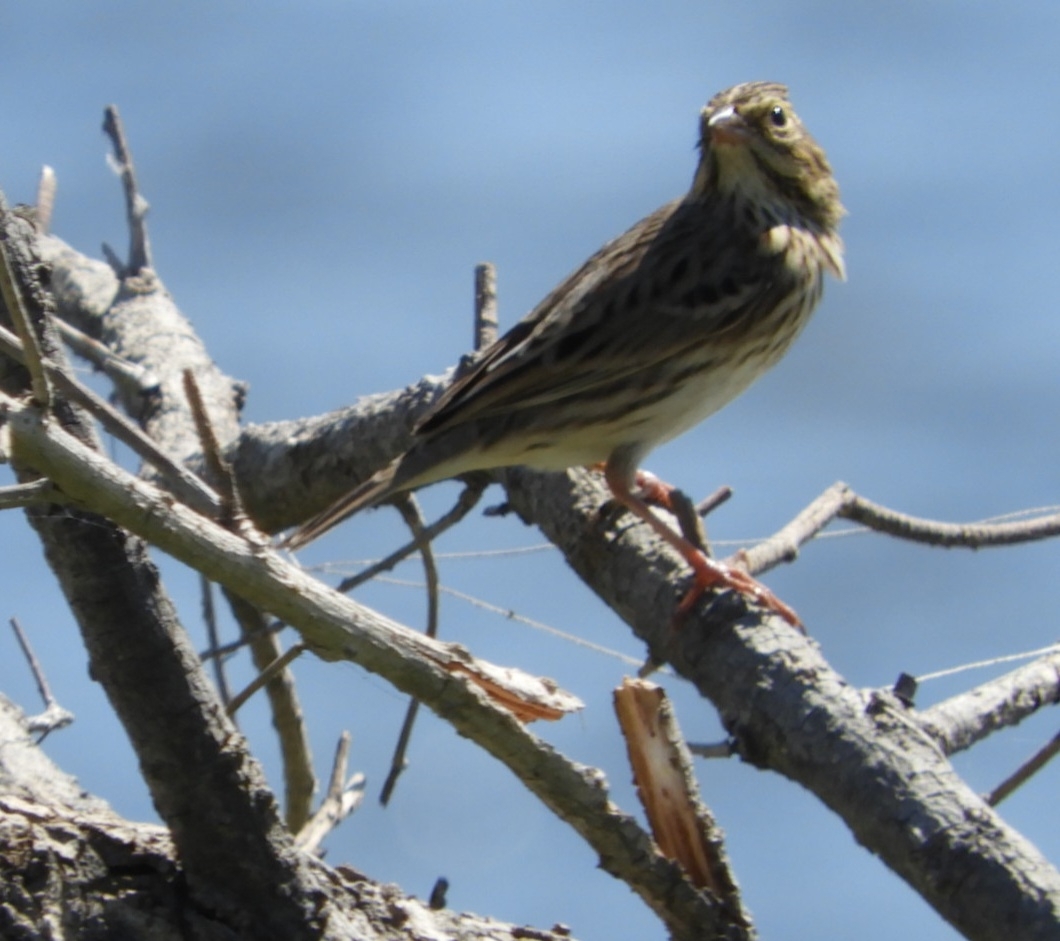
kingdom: Animalia
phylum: Chordata
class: Aves
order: Passeriformes
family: Passerellidae
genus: Passerculus
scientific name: Passerculus sandwichensis
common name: Savannah sparrow
